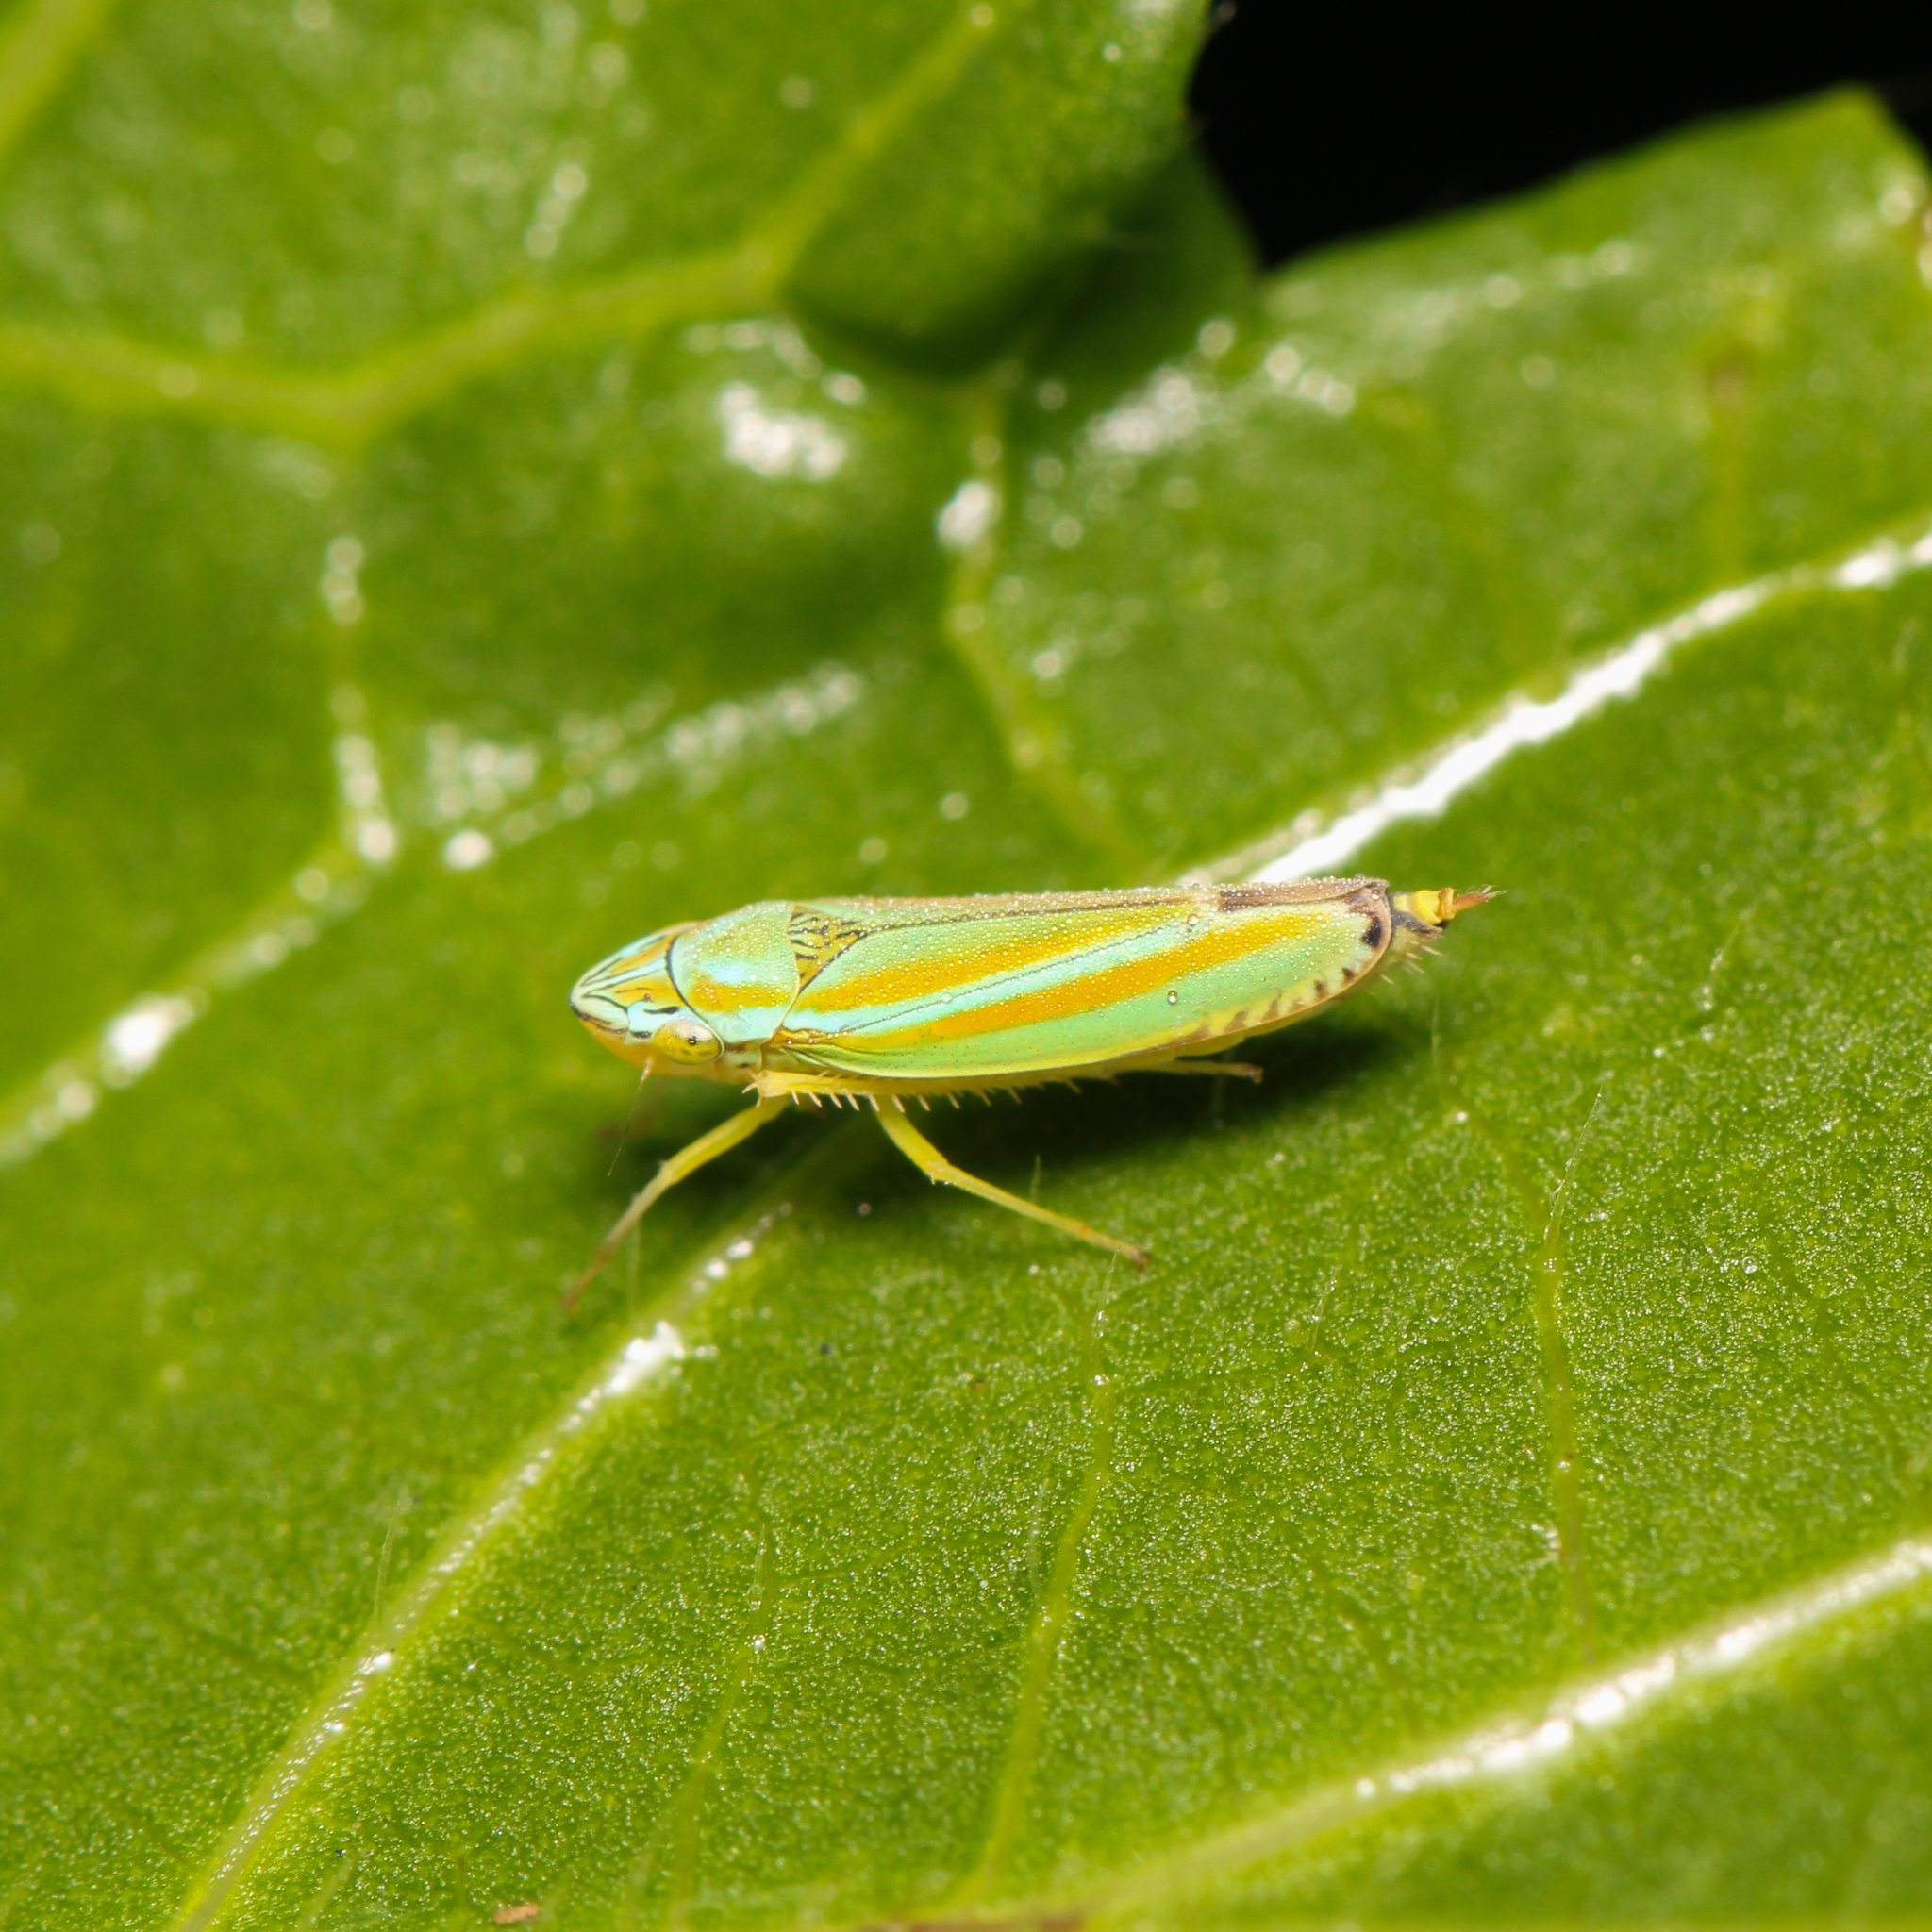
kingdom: Animalia
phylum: Arthropoda
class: Insecta
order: Hemiptera
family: Cicadellidae
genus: Graphocephala
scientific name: Graphocephala versuta
